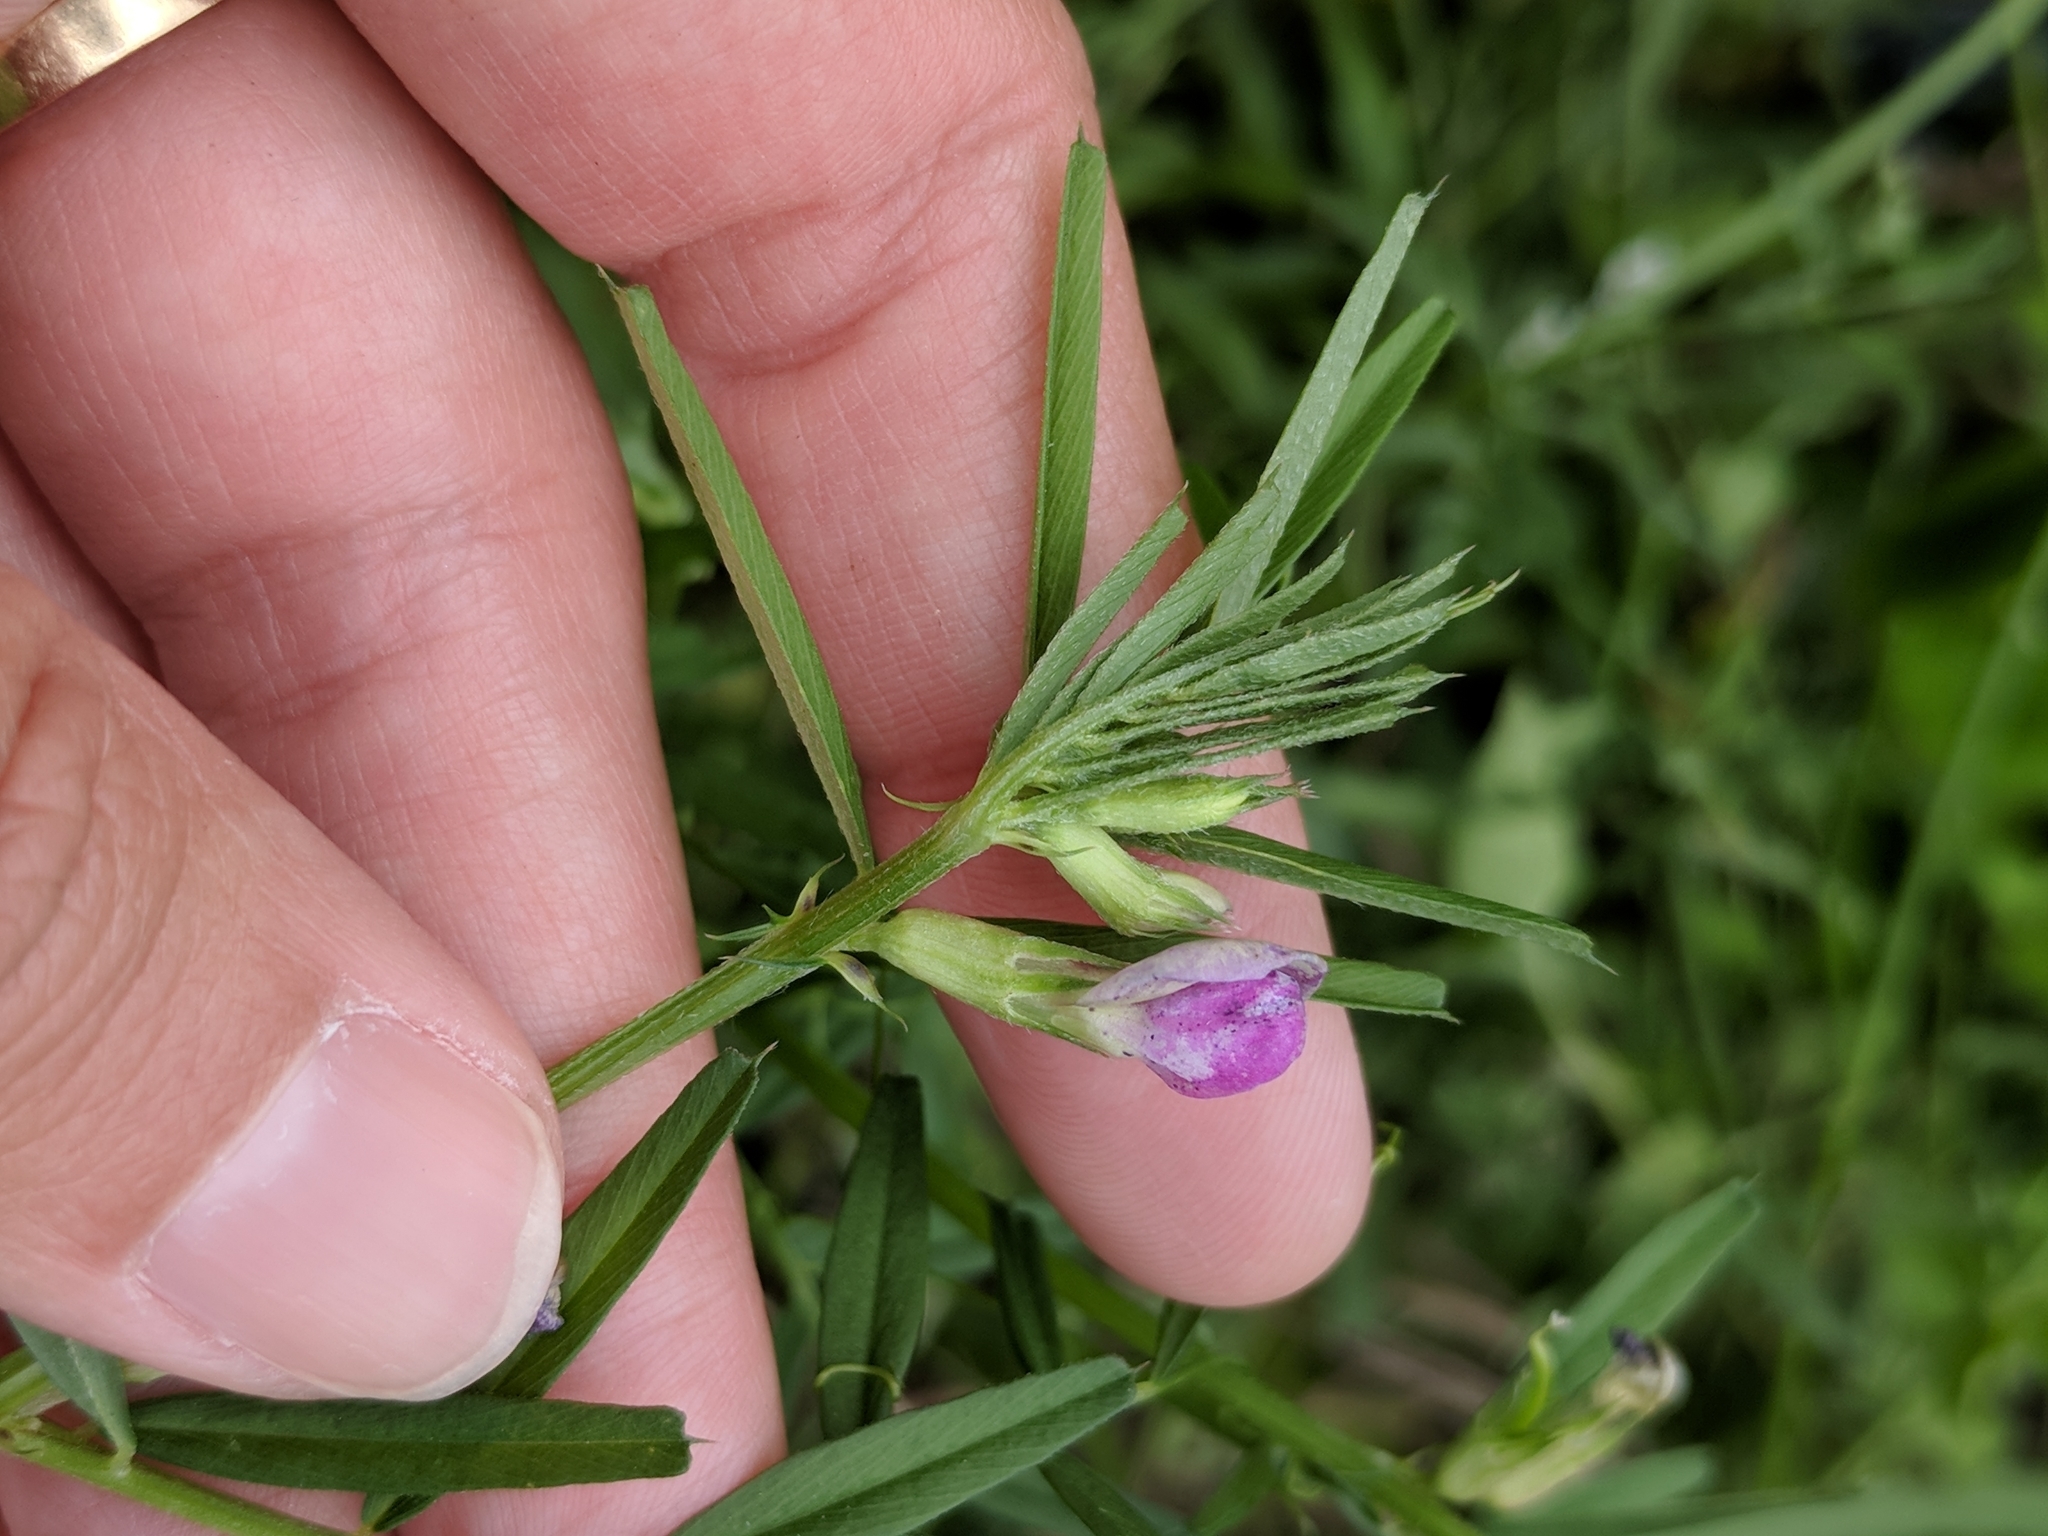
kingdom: Plantae
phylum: Tracheophyta
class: Magnoliopsida
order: Fabales
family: Fabaceae
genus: Vicia
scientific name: Vicia sativa
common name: Garden vetch
